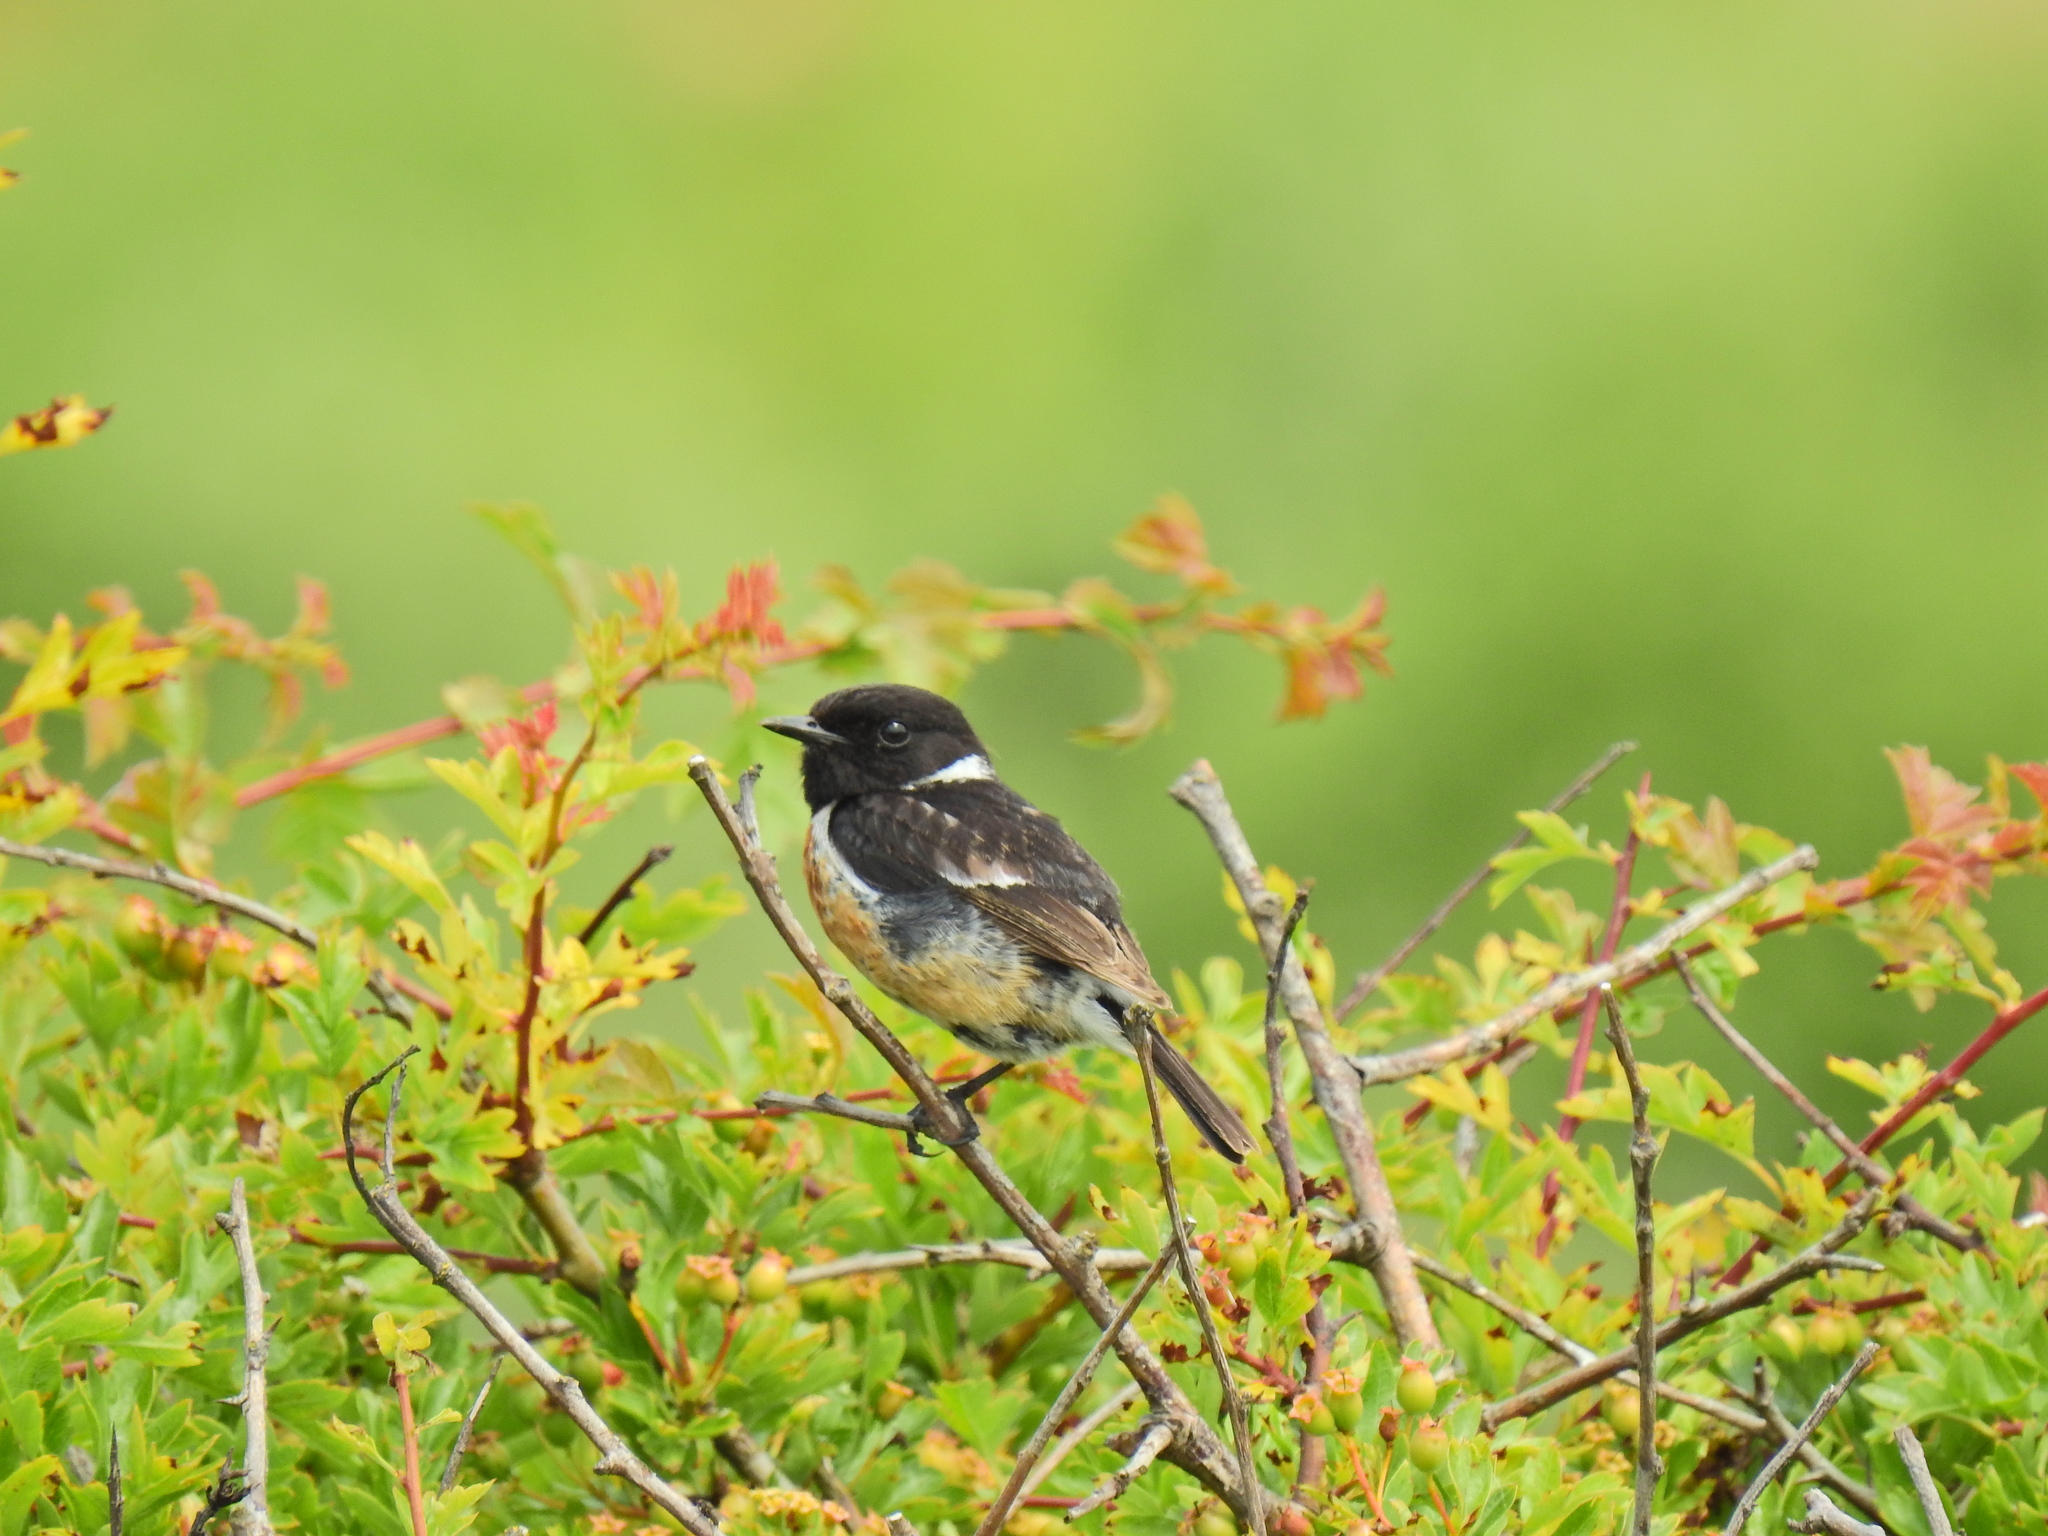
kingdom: Animalia
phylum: Chordata
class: Aves
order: Passeriformes
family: Muscicapidae
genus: Saxicola
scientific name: Saxicola rubicola
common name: European stonechat
